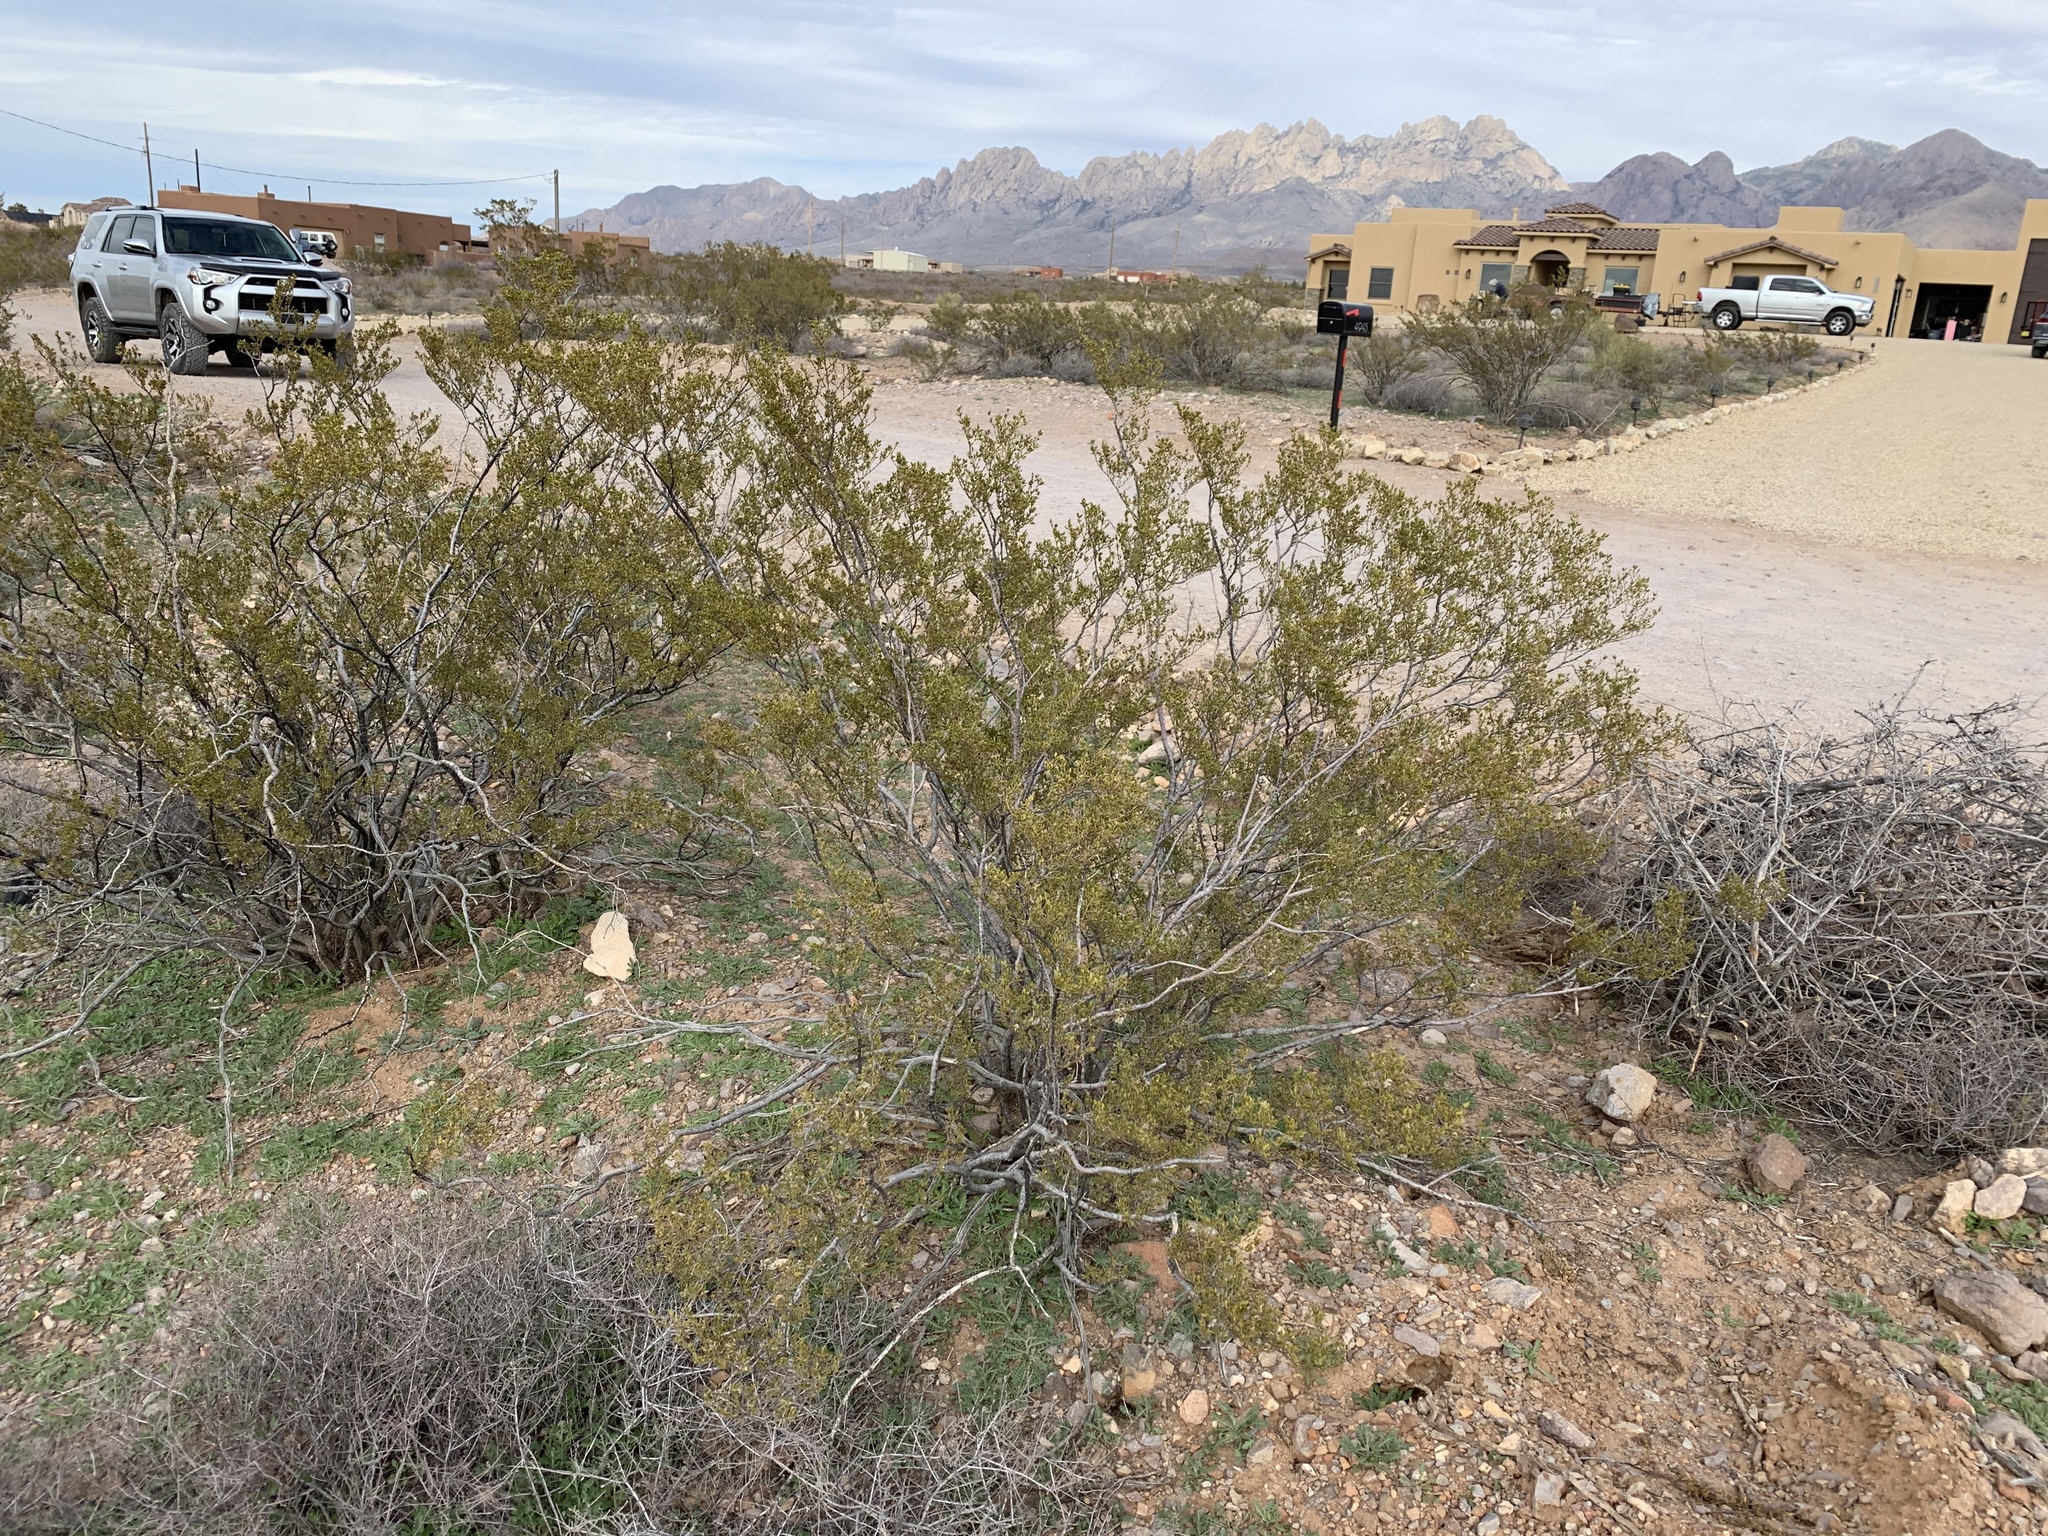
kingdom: Plantae
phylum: Tracheophyta
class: Magnoliopsida
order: Zygophyllales
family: Zygophyllaceae
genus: Larrea
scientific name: Larrea tridentata
